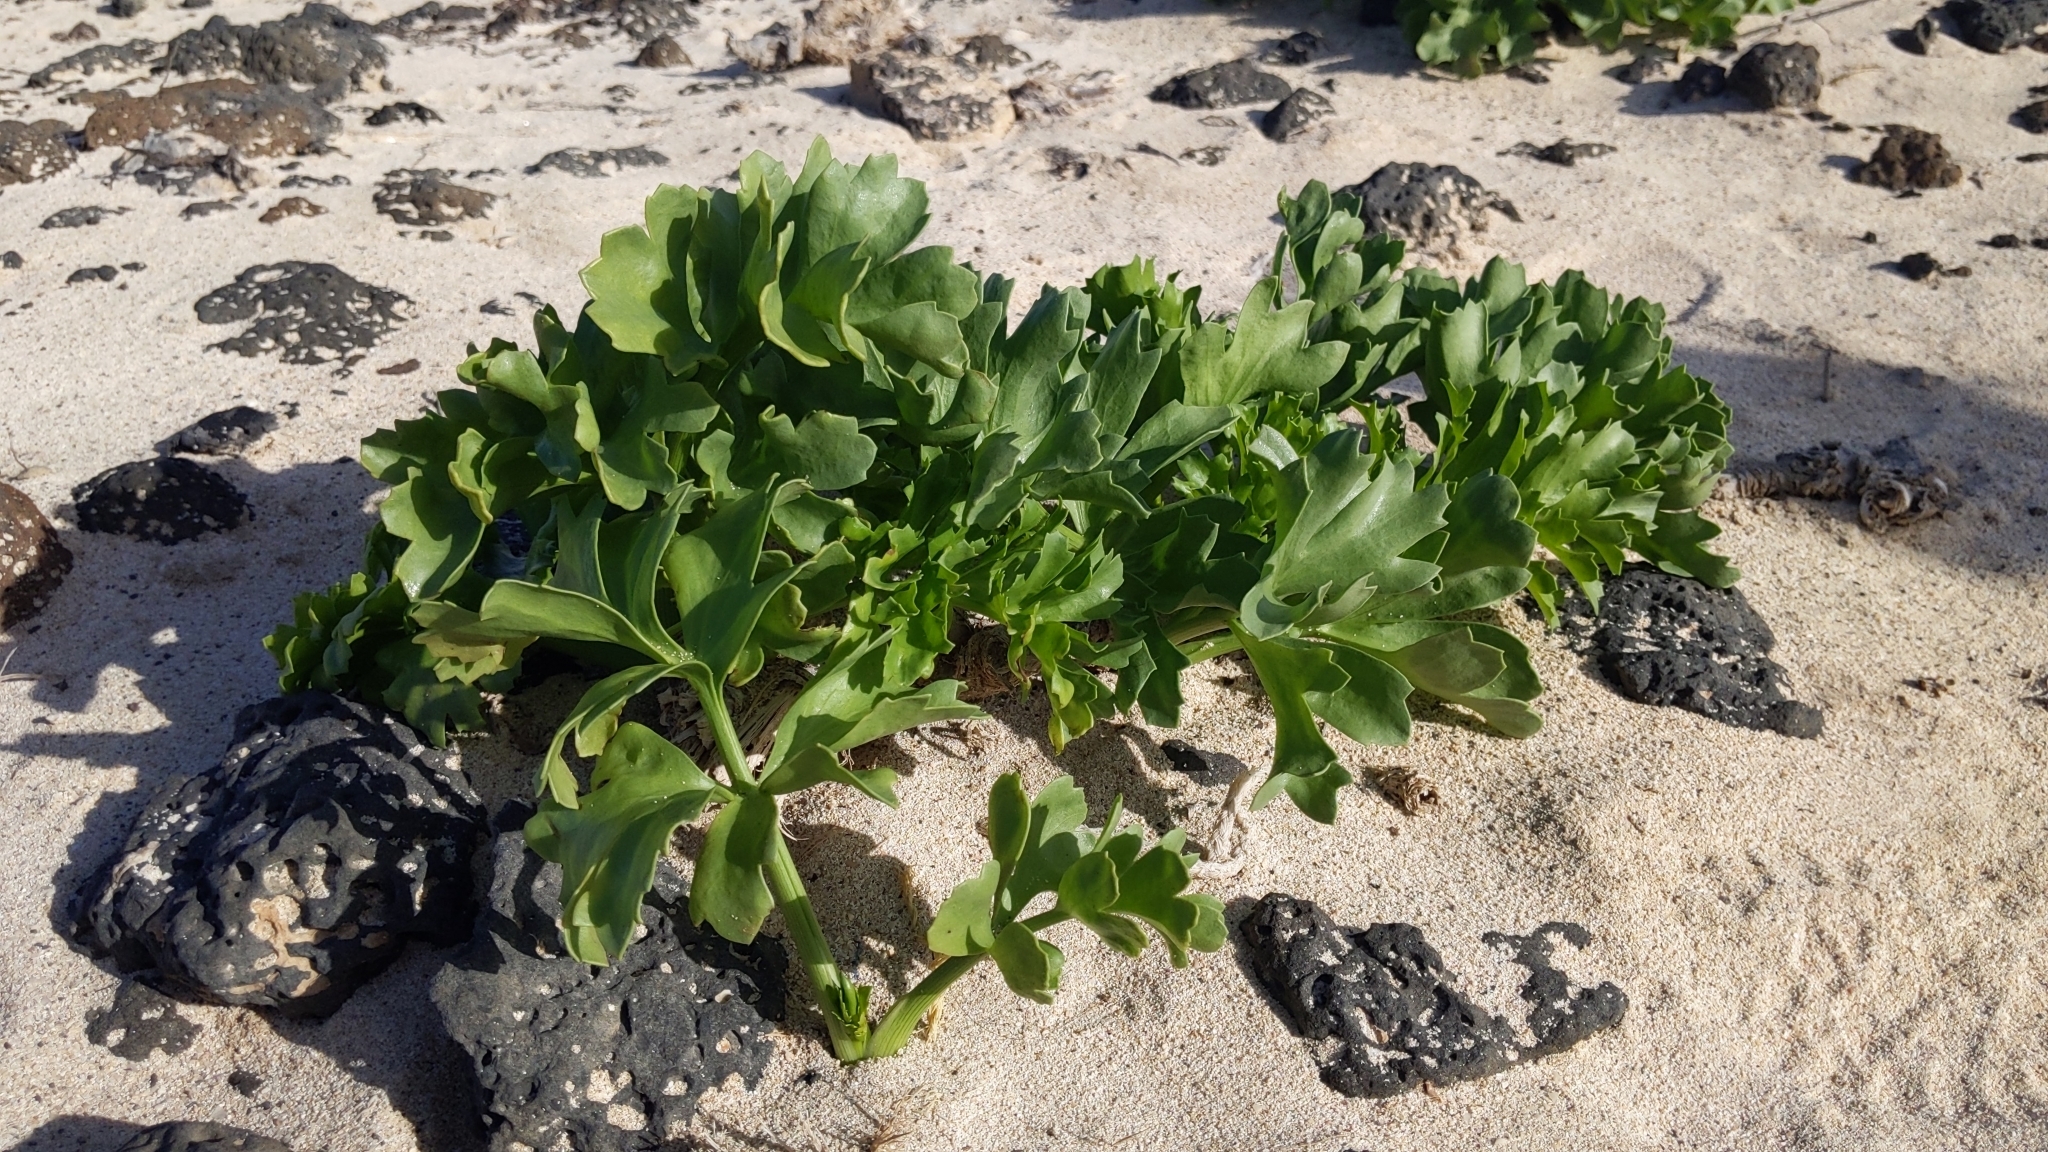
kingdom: Plantae
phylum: Tracheophyta
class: Magnoliopsida
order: Apiales
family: Apiaceae
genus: Astydamia
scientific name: Astydamia latifolia
